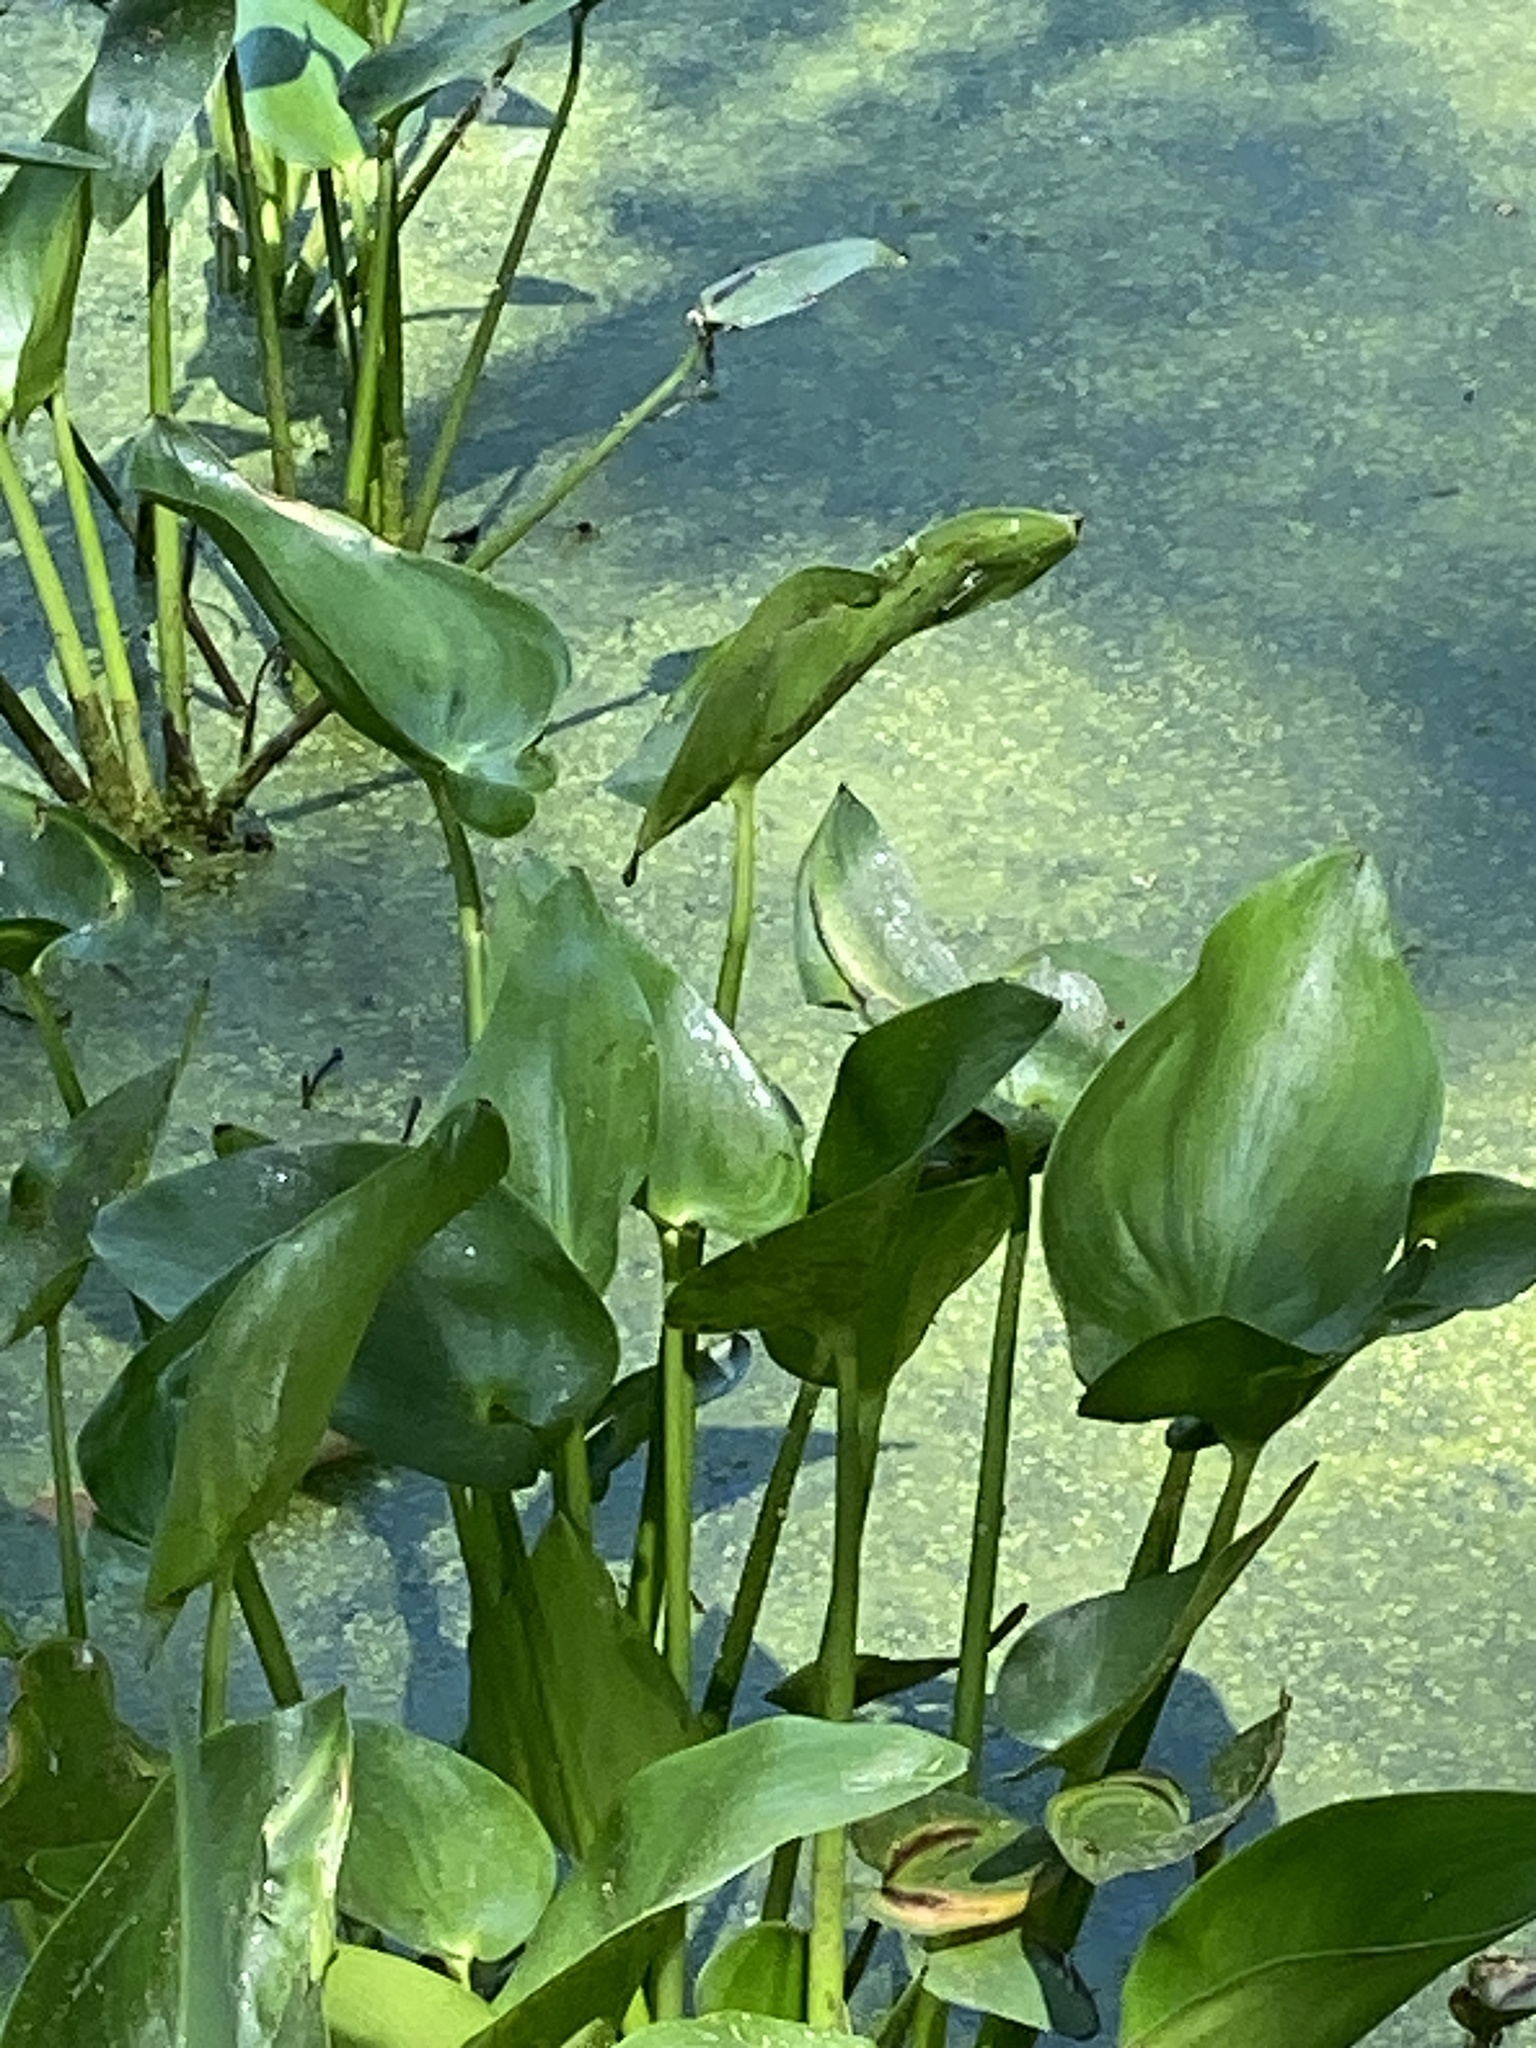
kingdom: Plantae
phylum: Tracheophyta
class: Liliopsida
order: Commelinales
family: Pontederiaceae
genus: Pontederia
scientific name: Pontederia cordata
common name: Pickerelweed
